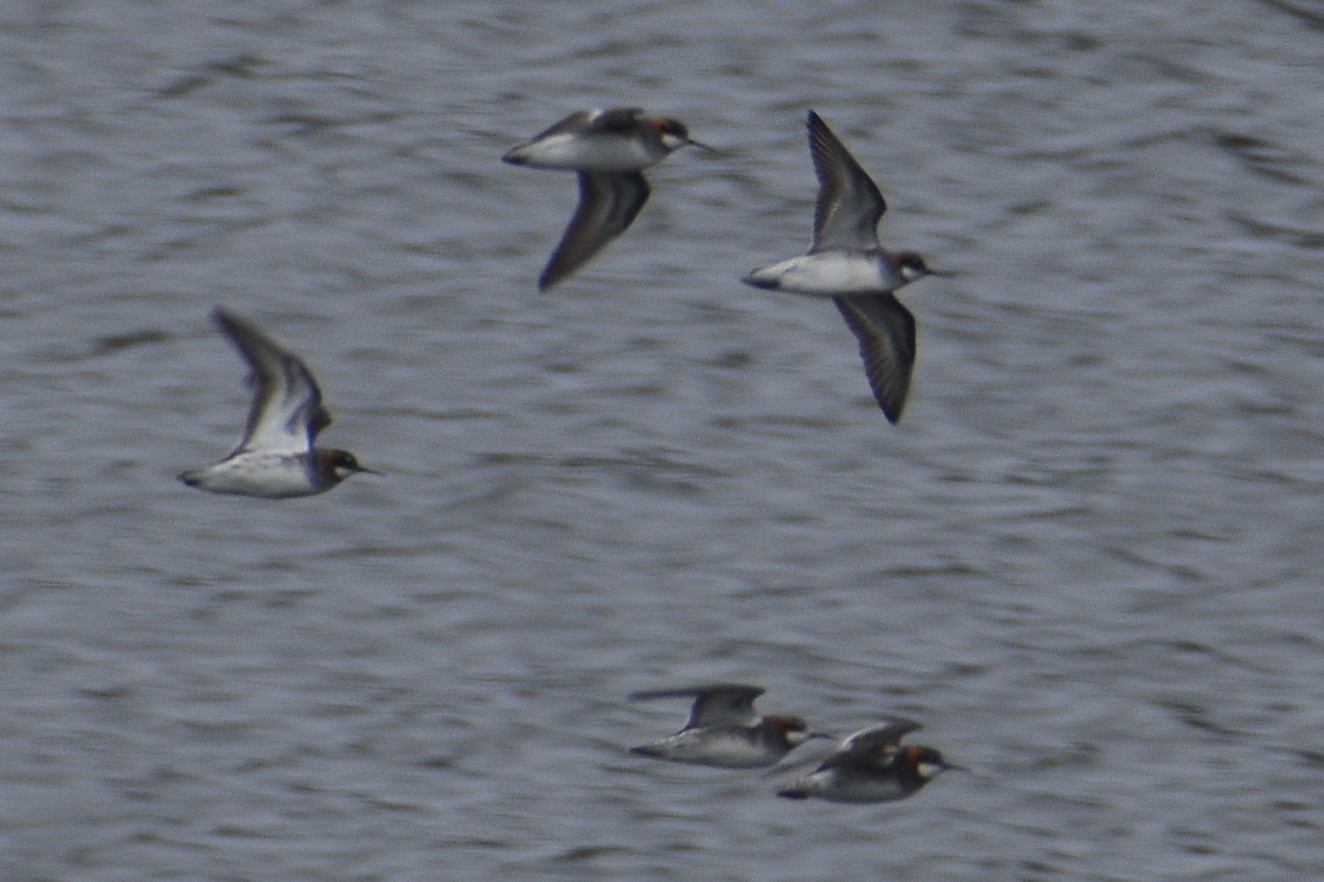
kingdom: Animalia
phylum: Chordata
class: Aves
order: Charadriiformes
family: Scolopacidae
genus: Phalaropus
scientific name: Phalaropus lobatus
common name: Red-necked phalarope
